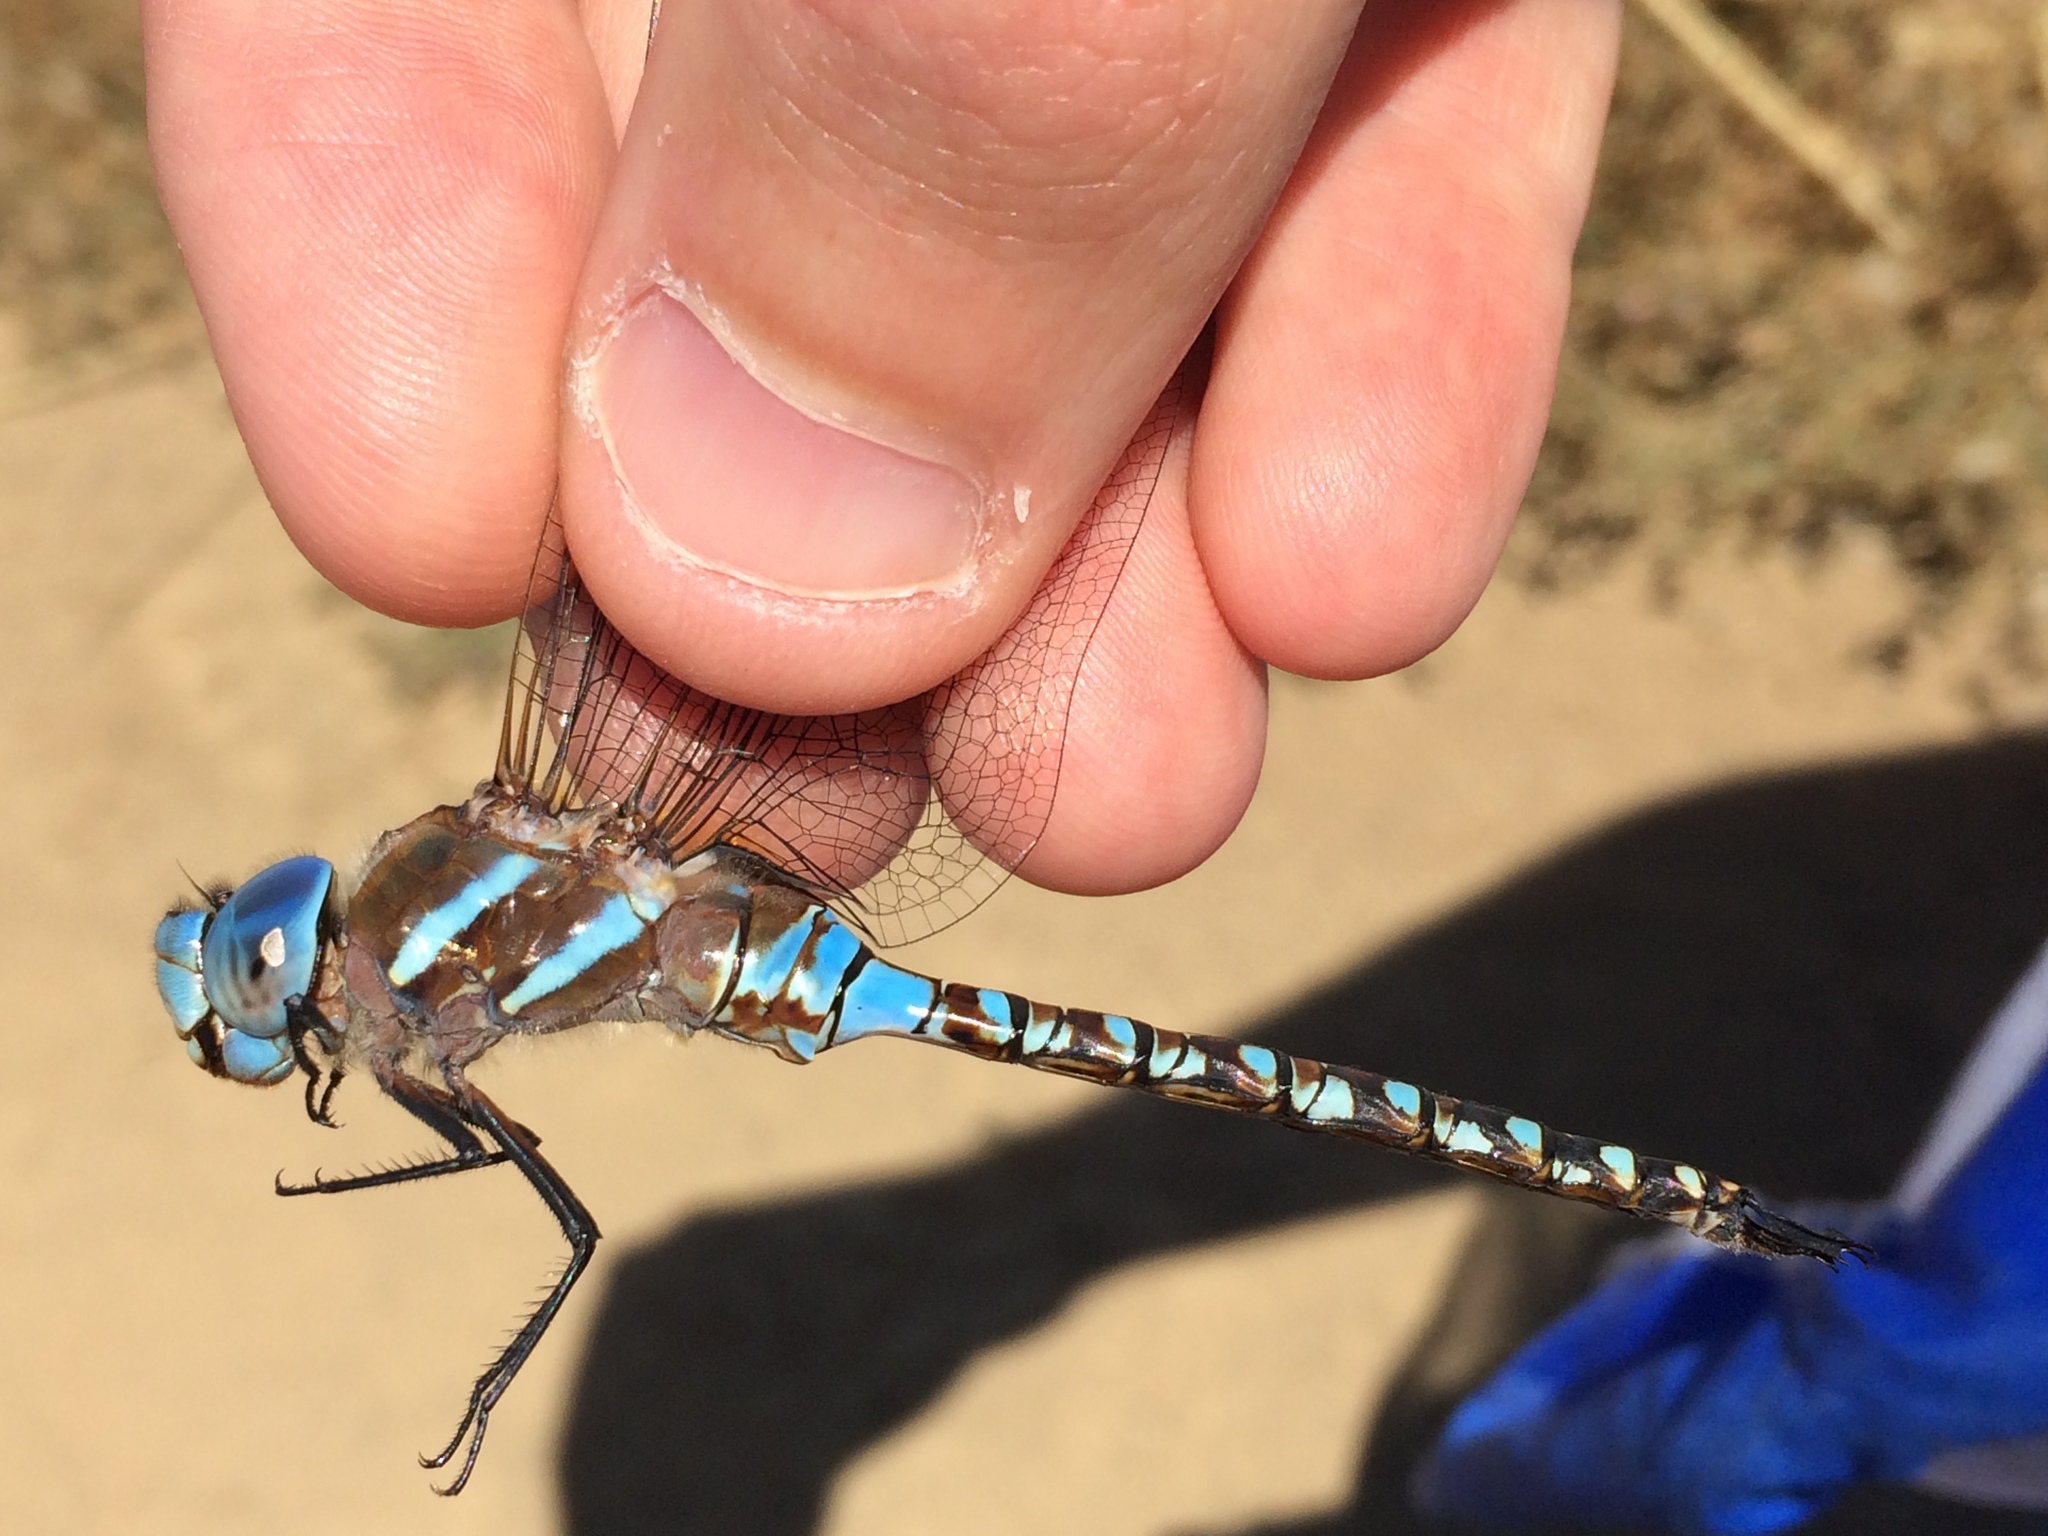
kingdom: Animalia
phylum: Arthropoda
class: Insecta
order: Odonata
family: Aeshnidae
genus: Rhionaeschna
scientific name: Rhionaeschna multicolor
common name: Blue-eyed darner
